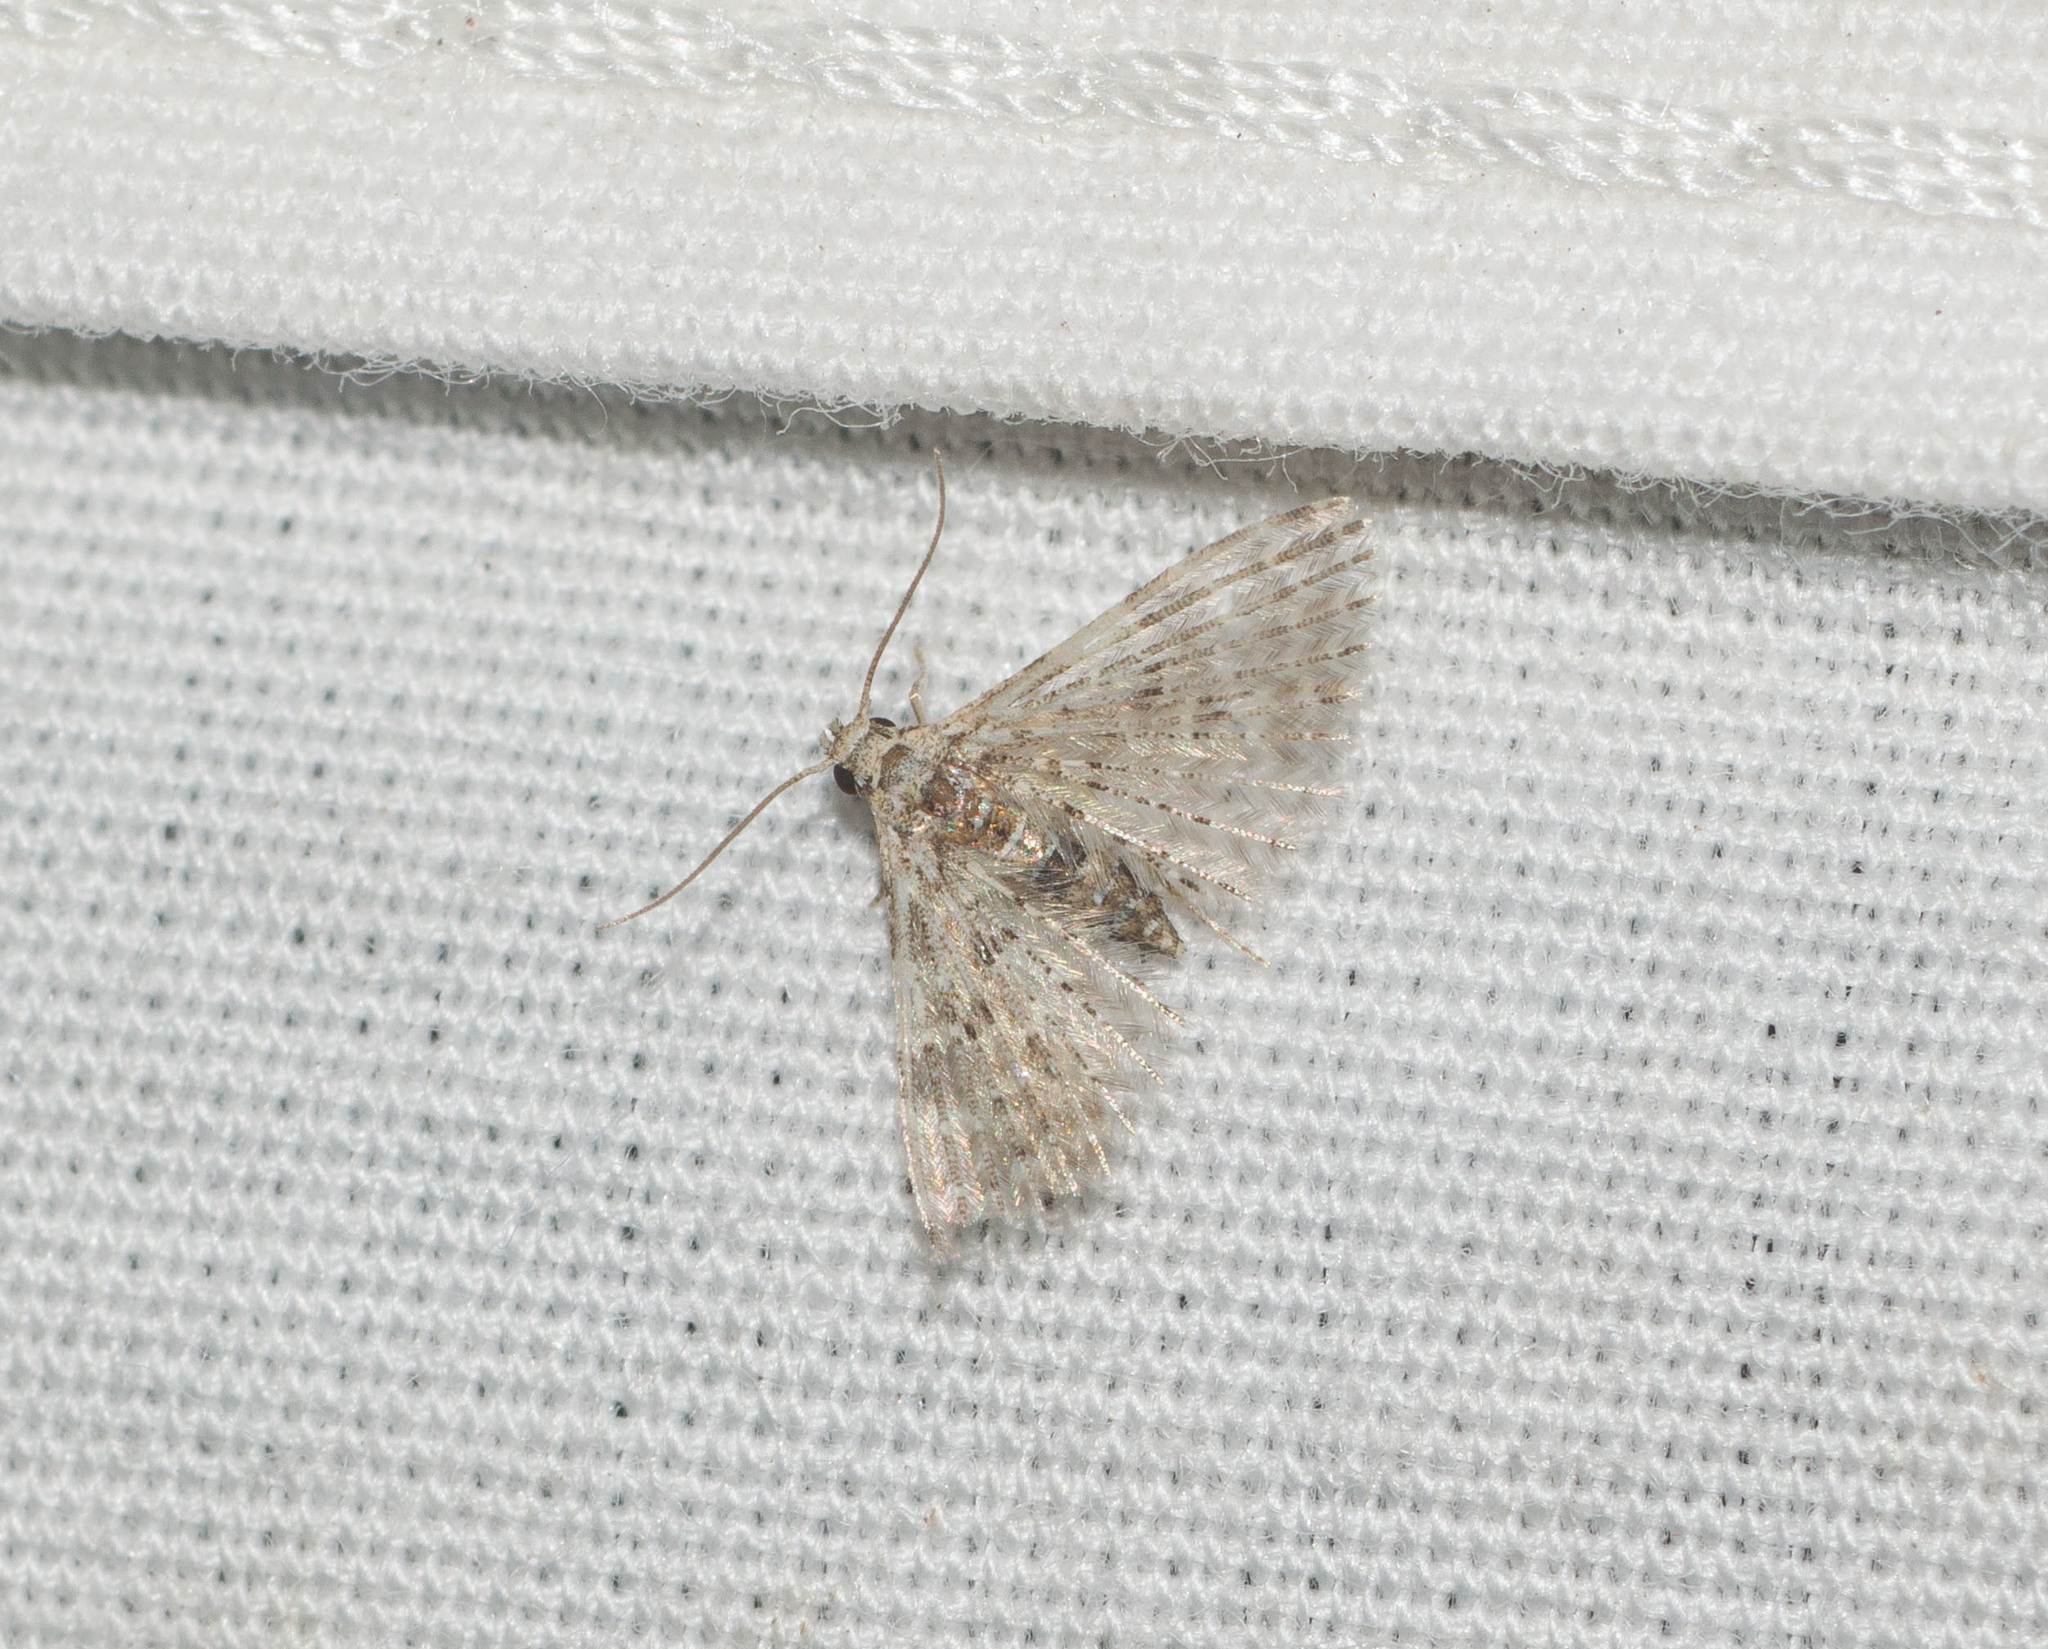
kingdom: Animalia
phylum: Arthropoda
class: Insecta
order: Lepidoptera
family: Alucitidae
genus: Alucita
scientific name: Alucita objurgatella
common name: Moth
